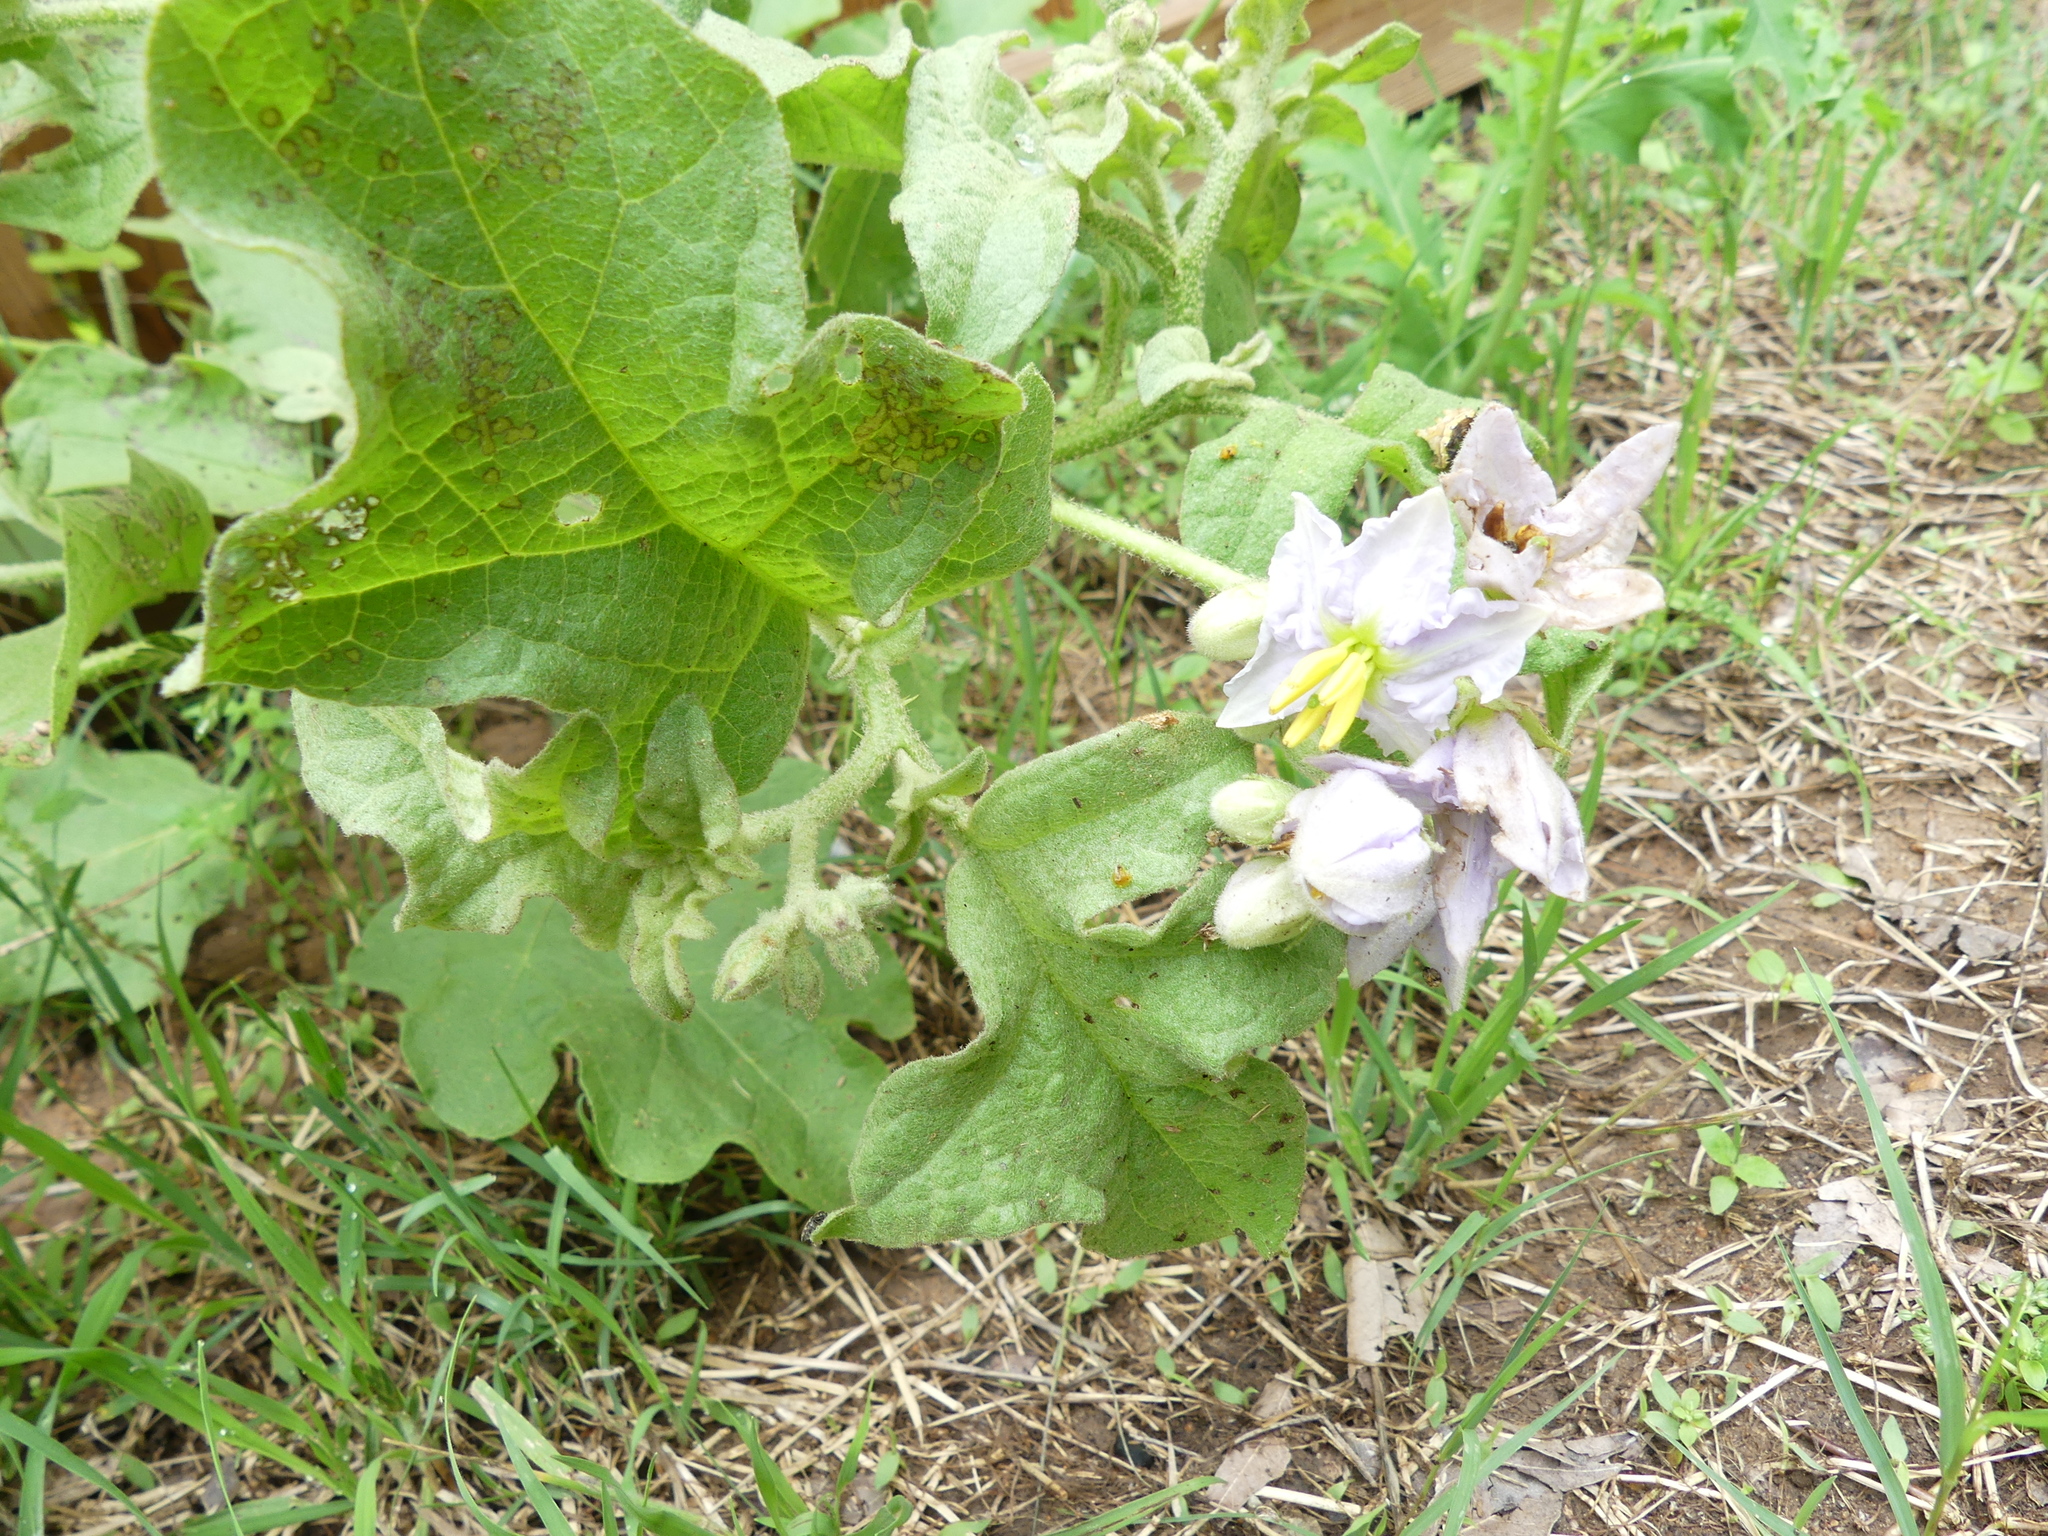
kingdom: Plantae
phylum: Tracheophyta
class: Magnoliopsida
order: Solanales
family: Solanaceae
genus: Solanum
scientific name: Solanum dimidiatum
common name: Carolina horse-nettle
